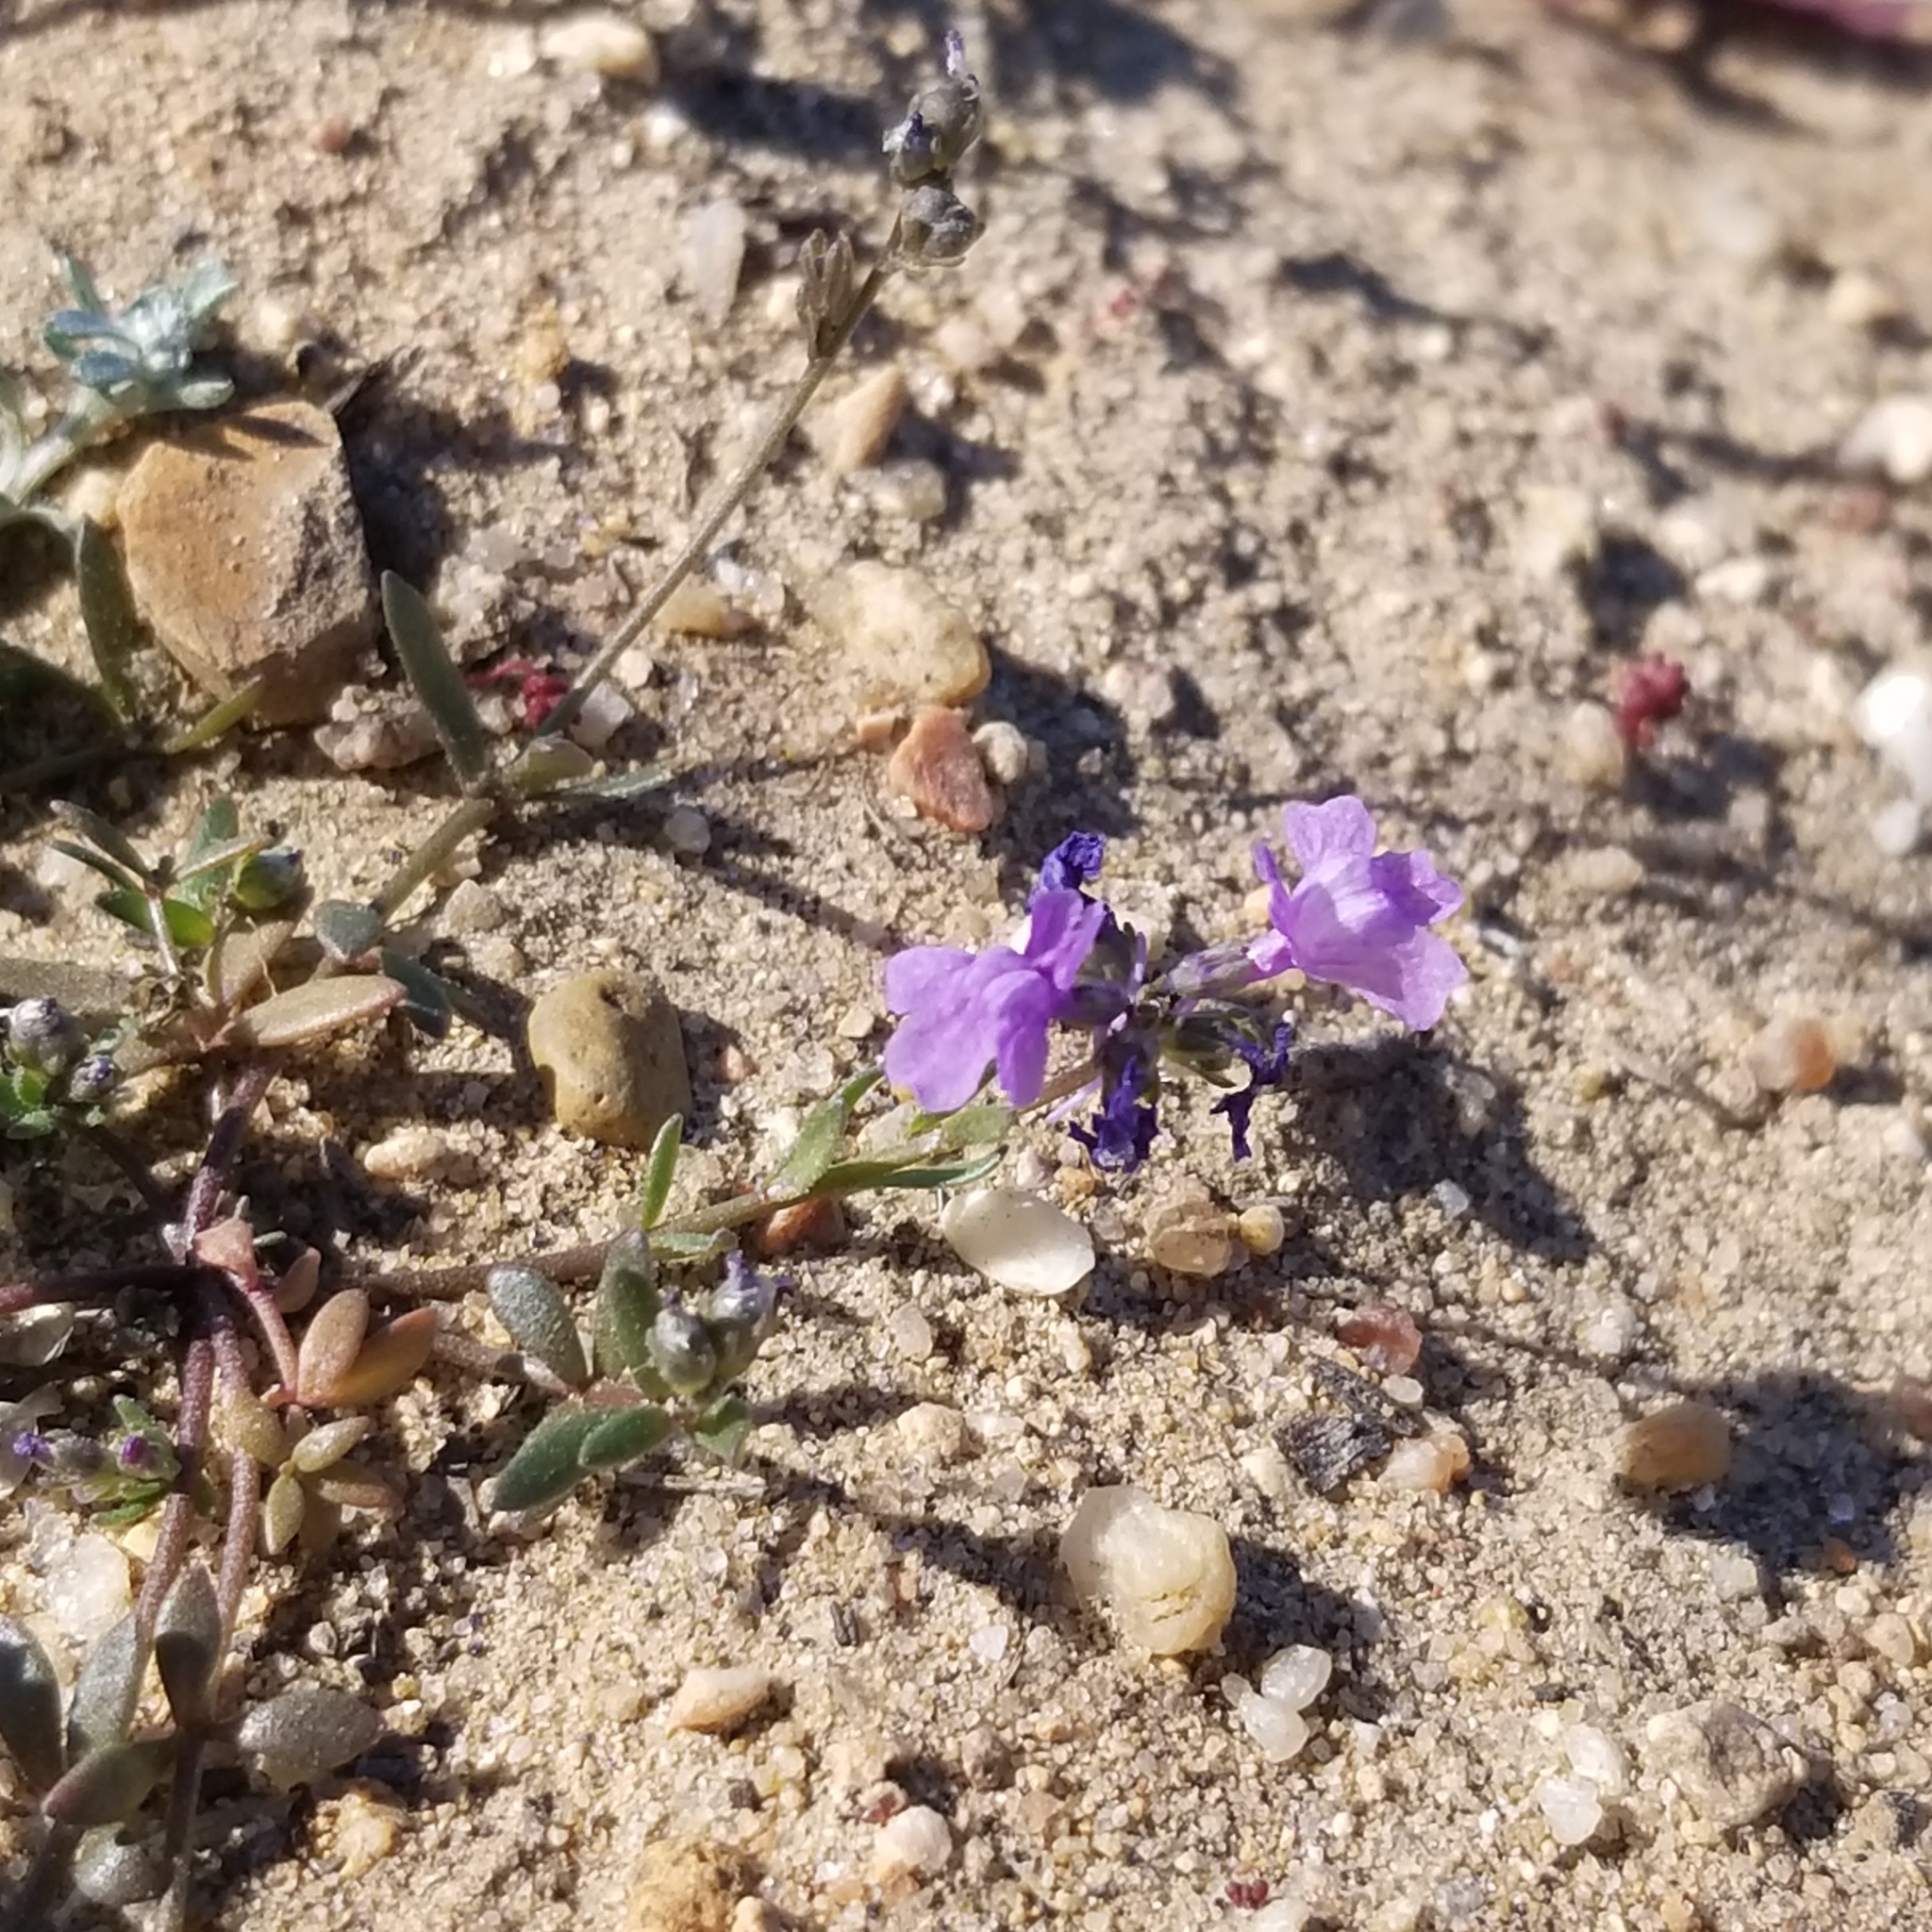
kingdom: Plantae
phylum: Tracheophyta
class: Magnoliopsida
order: Lamiales
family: Plantaginaceae
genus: Nuttallanthus
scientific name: Nuttallanthus texanus
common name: Texas toadflax
